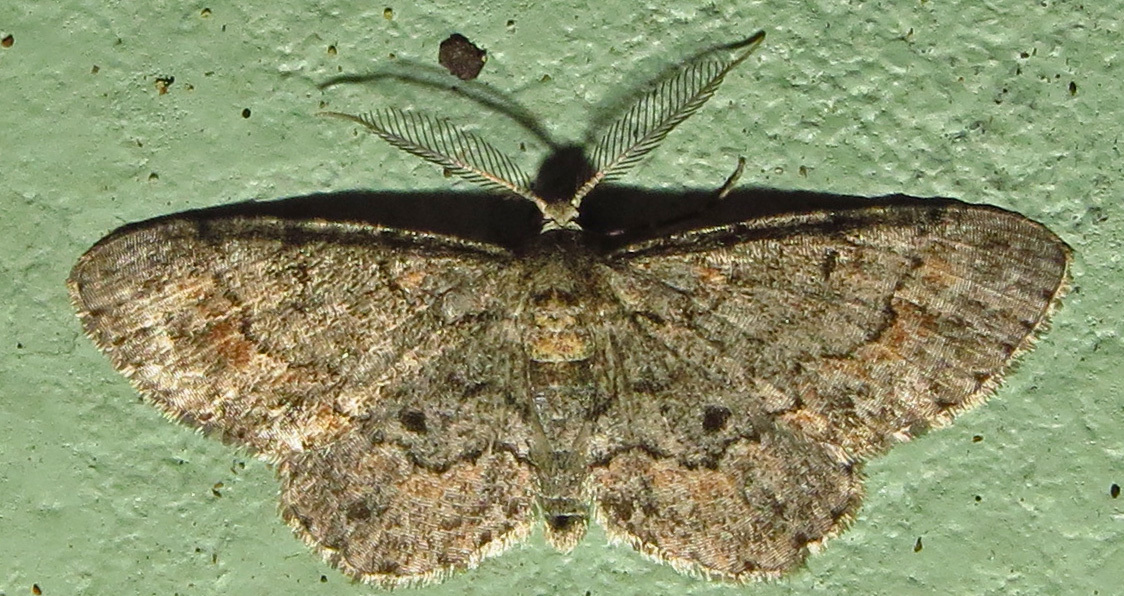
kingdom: Animalia
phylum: Arthropoda
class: Insecta
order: Lepidoptera
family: Geometridae
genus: Glenoides
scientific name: Glenoides texanaria
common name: Texas gray
